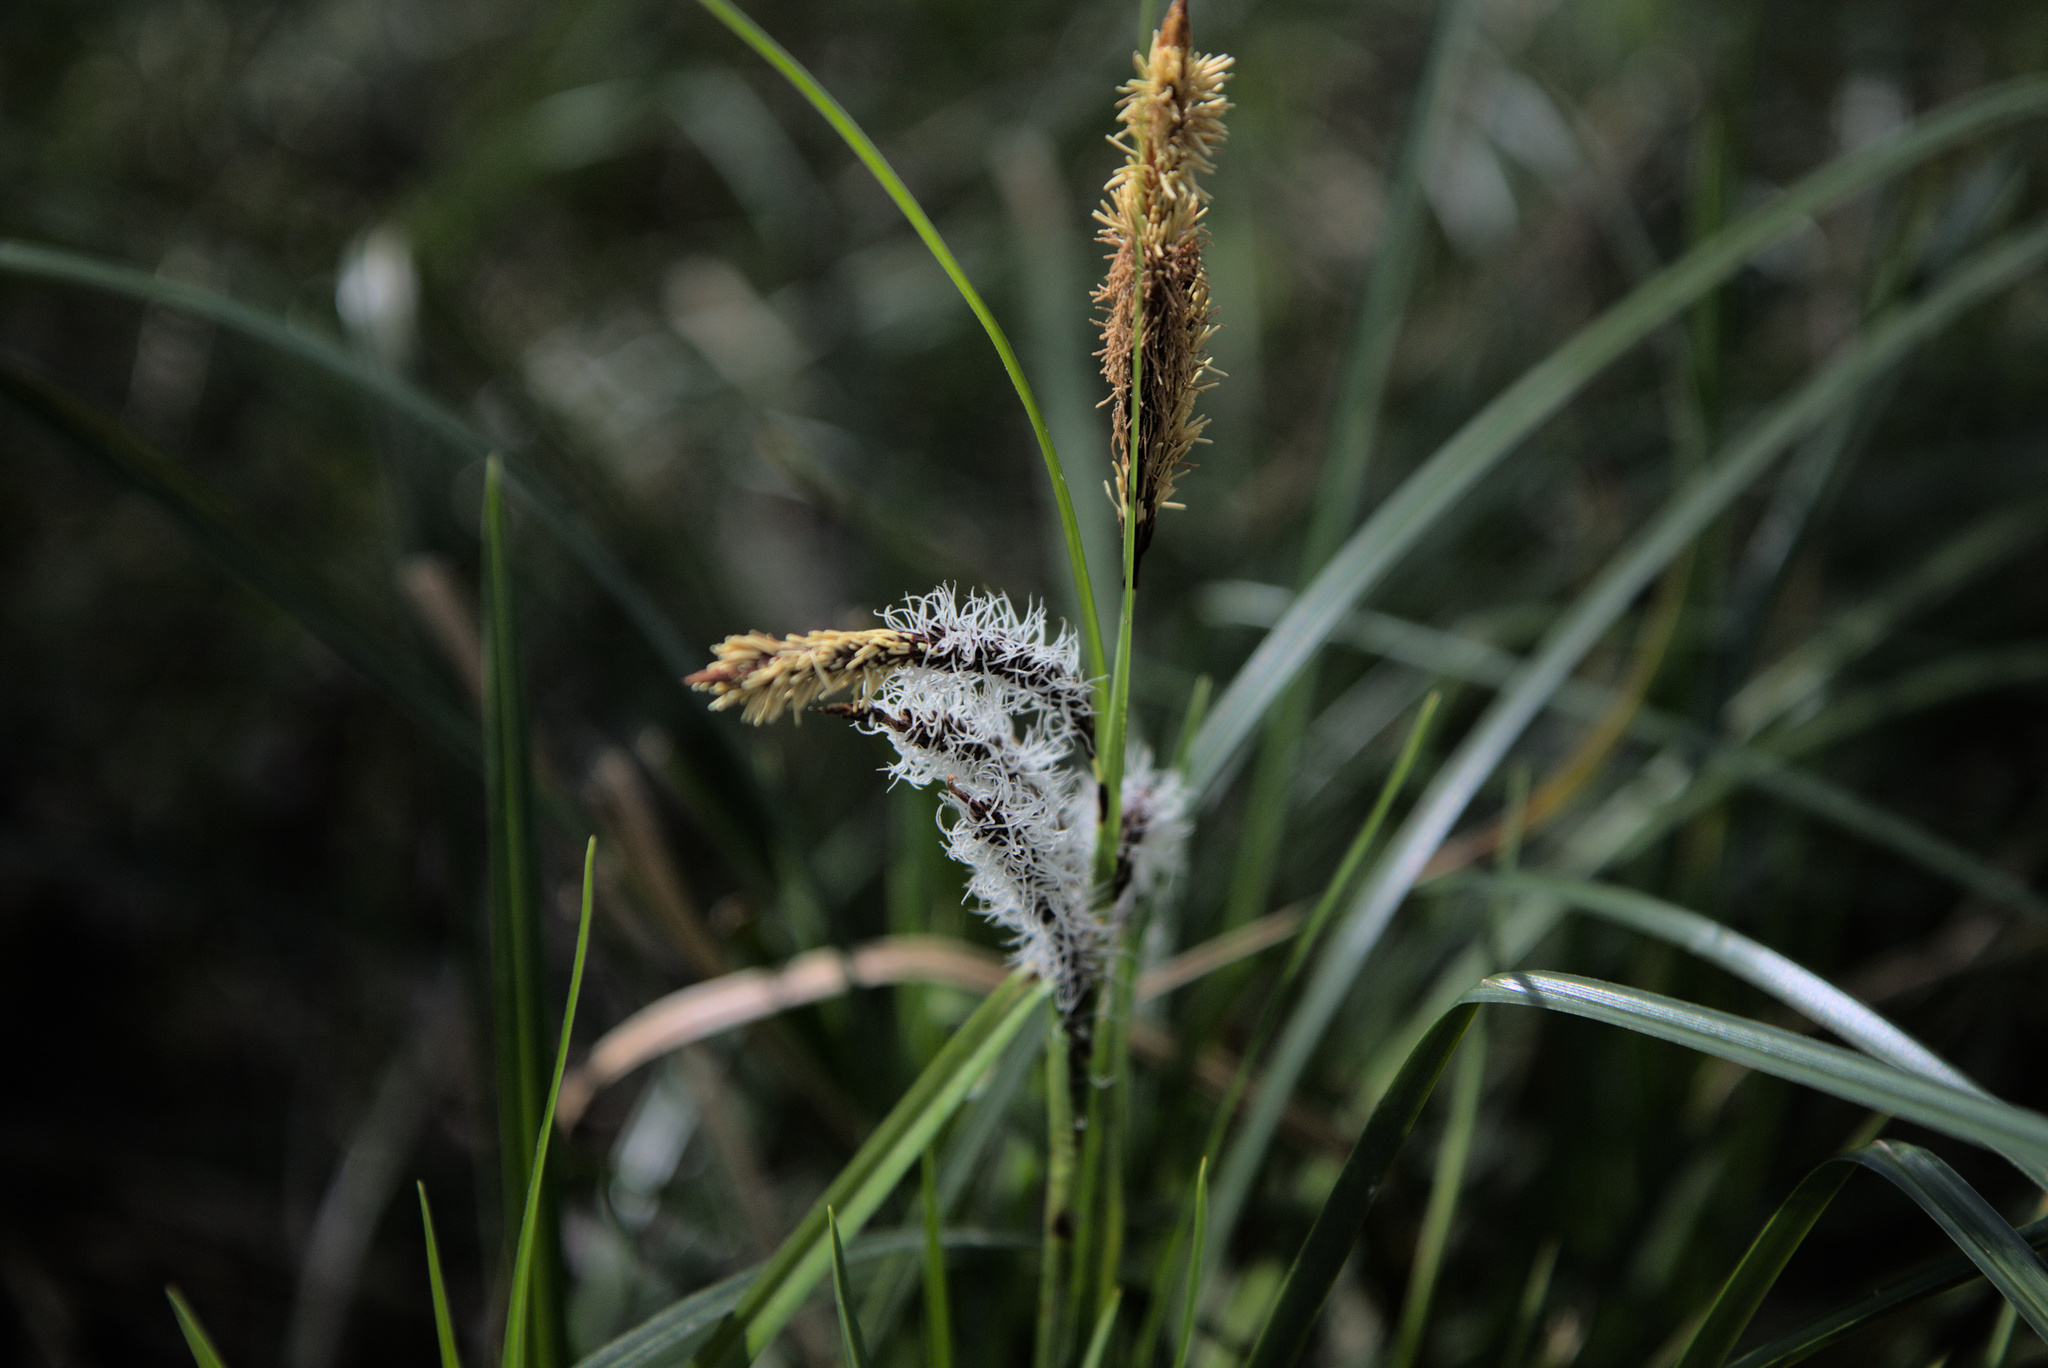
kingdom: Plantae
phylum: Tracheophyta
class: Liliopsida
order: Poales
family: Cyperaceae
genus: Carex
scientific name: Carex obnupta
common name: Slough sedge
